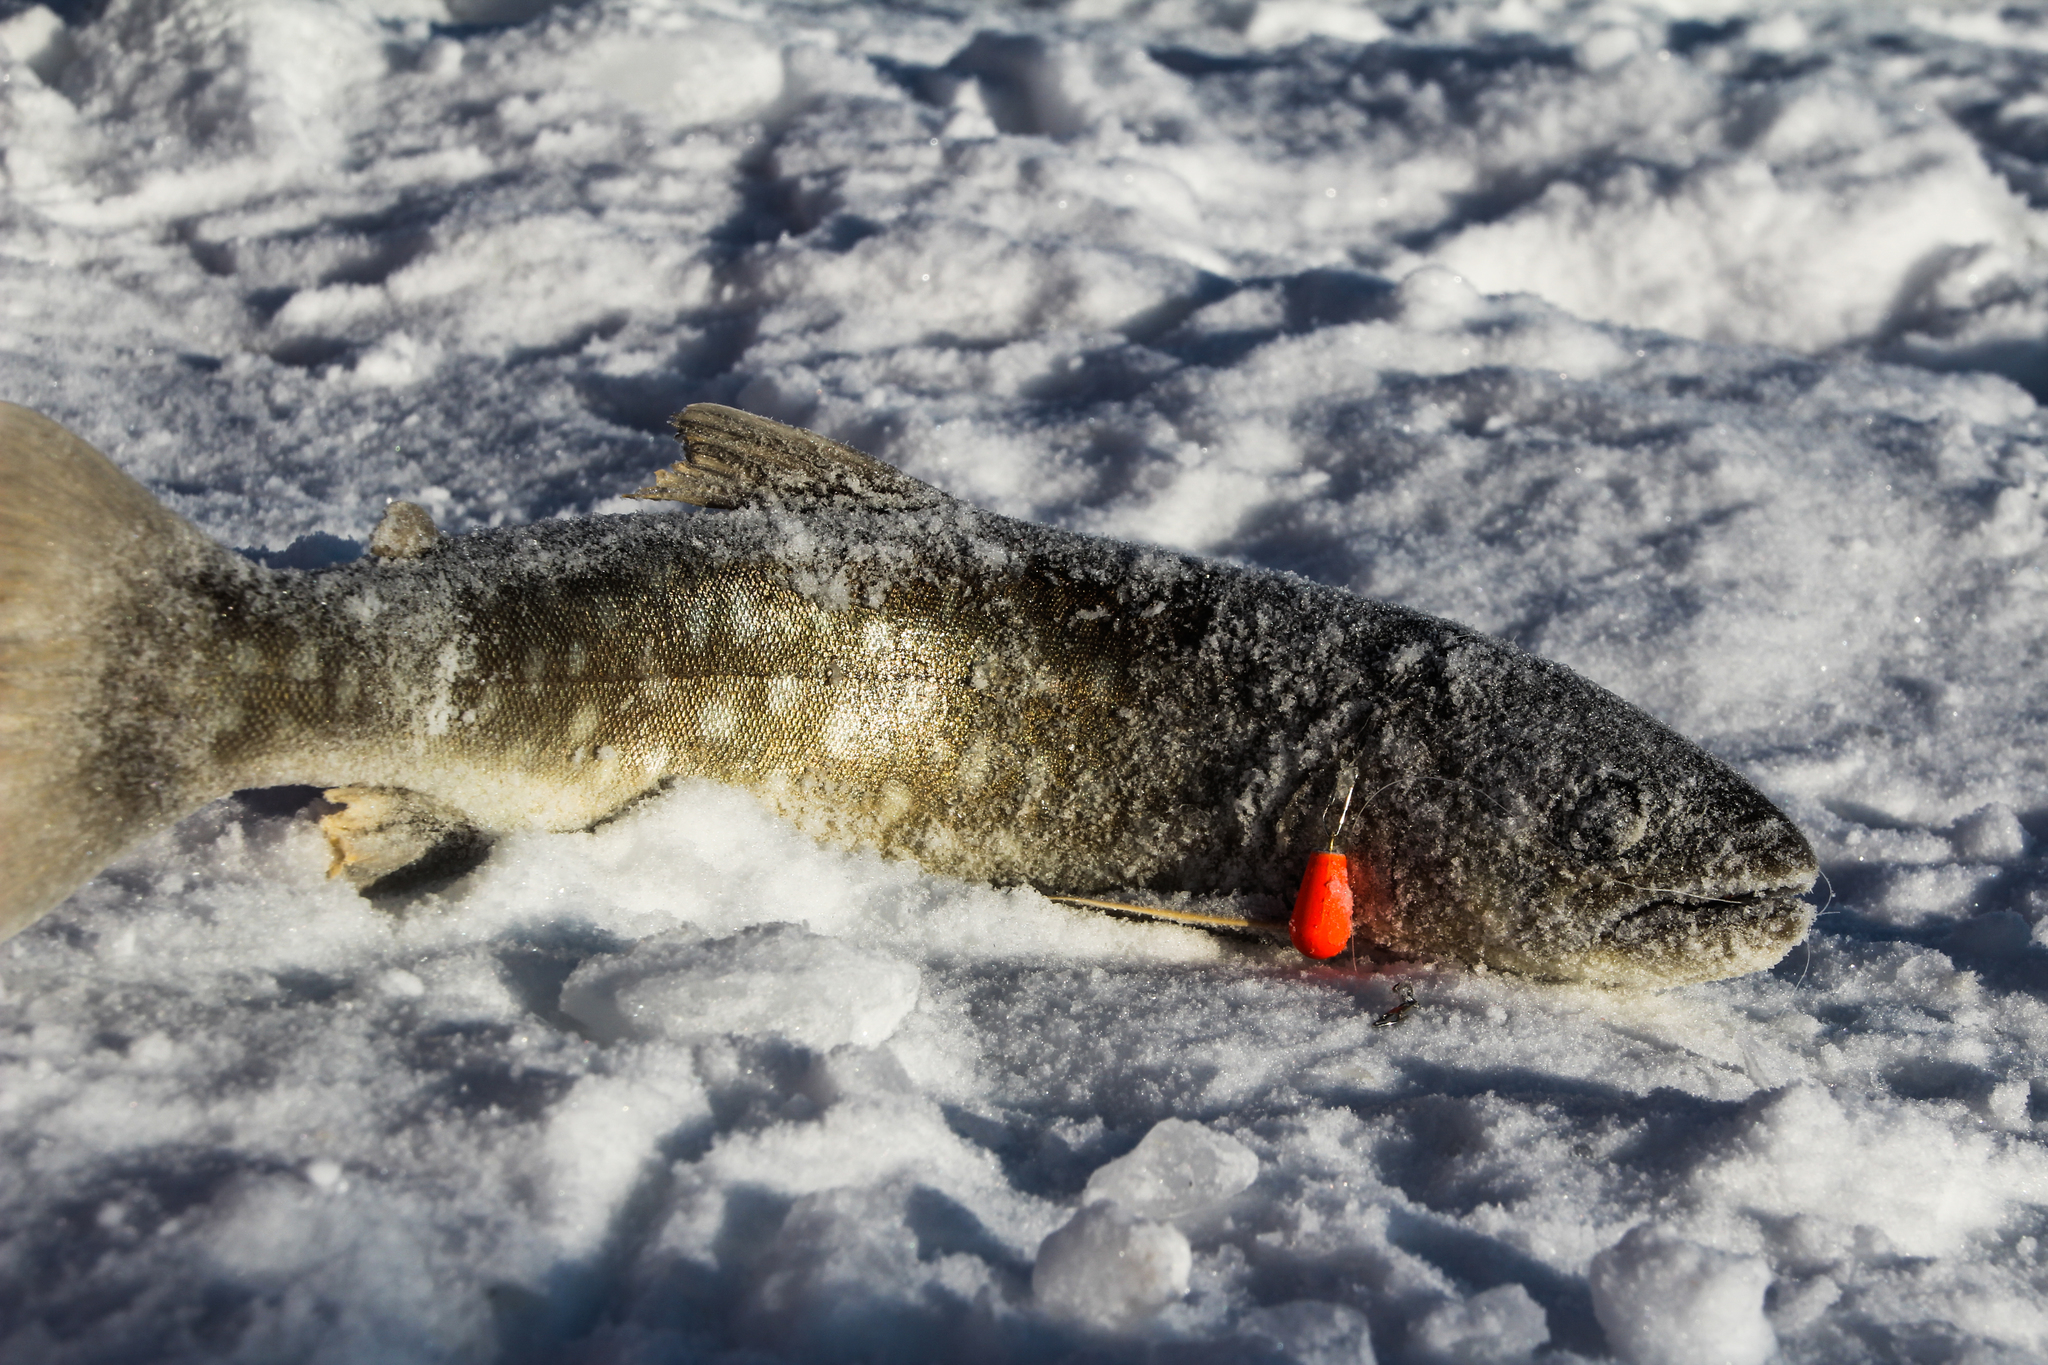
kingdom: Animalia
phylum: Chordata
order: Salmoniformes
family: Salmonidae
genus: Salvelinus
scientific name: Salvelinus leucomaenis
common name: Whitespotted char
